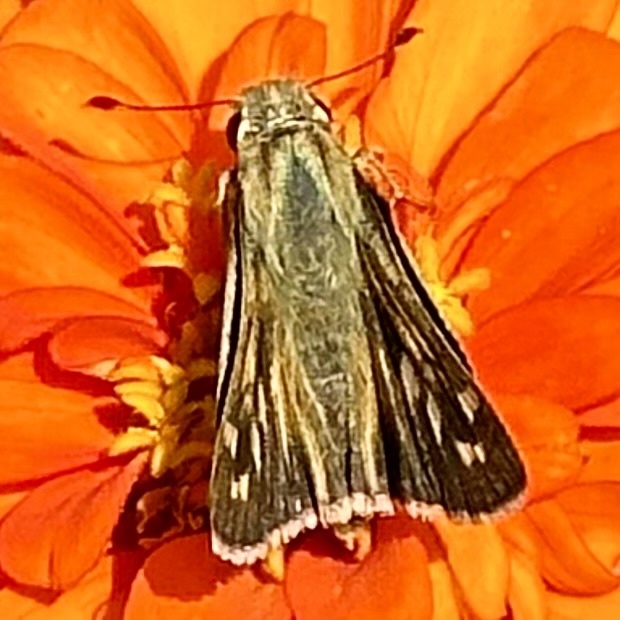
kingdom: Animalia
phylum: Arthropoda
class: Insecta
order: Lepidoptera
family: Hesperiidae
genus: Atalopedes
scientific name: Atalopedes
